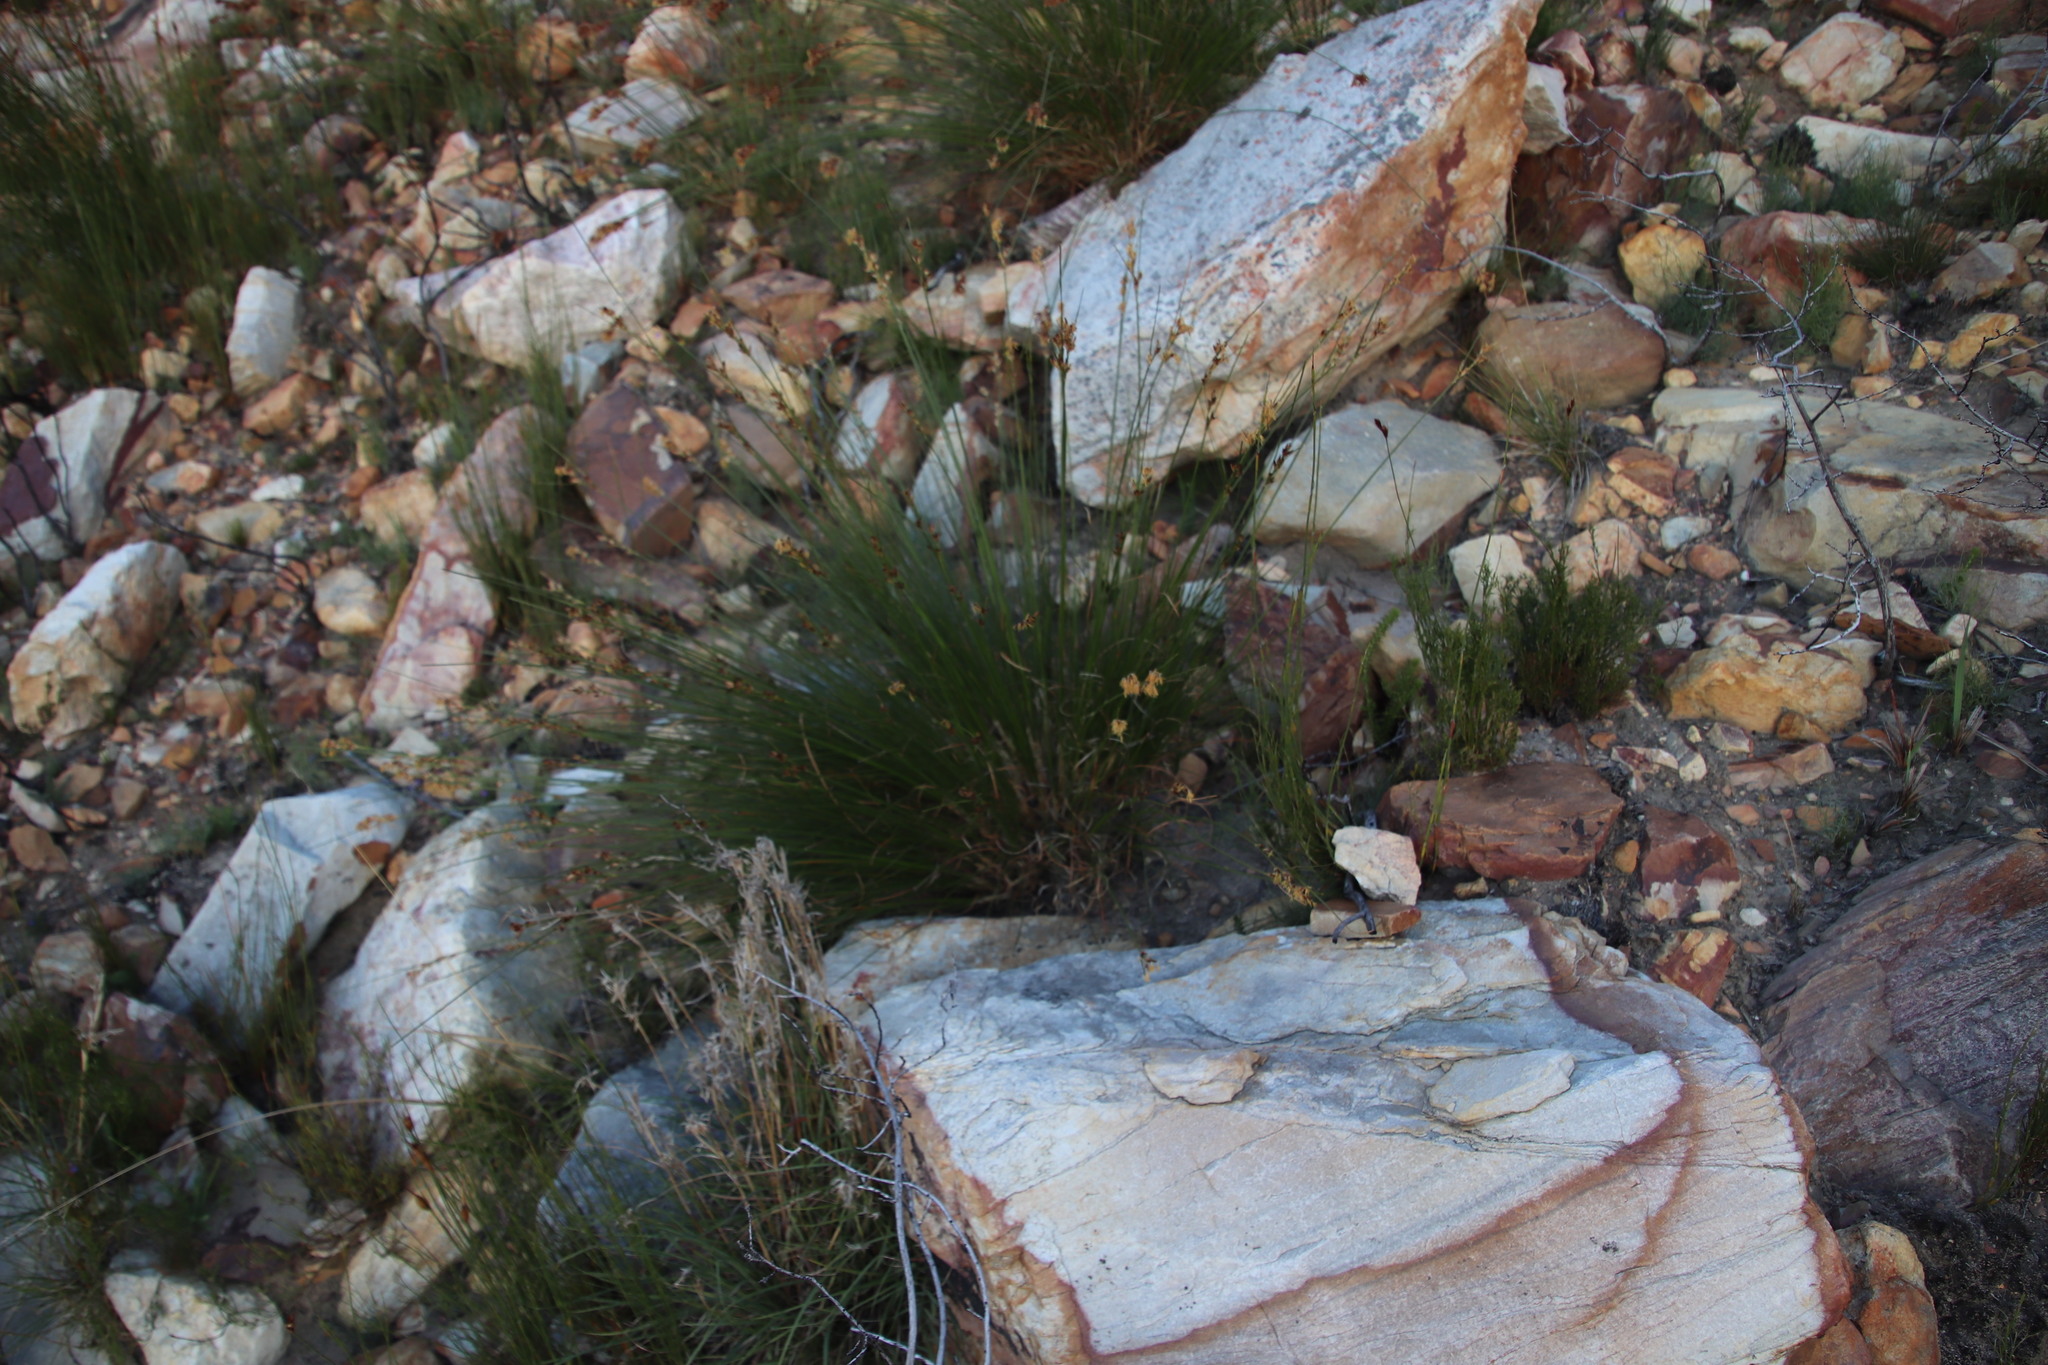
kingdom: Plantae
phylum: Tracheophyta
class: Liliopsida
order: Poales
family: Cyperaceae
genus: Schoenus
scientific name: Schoenus compar
